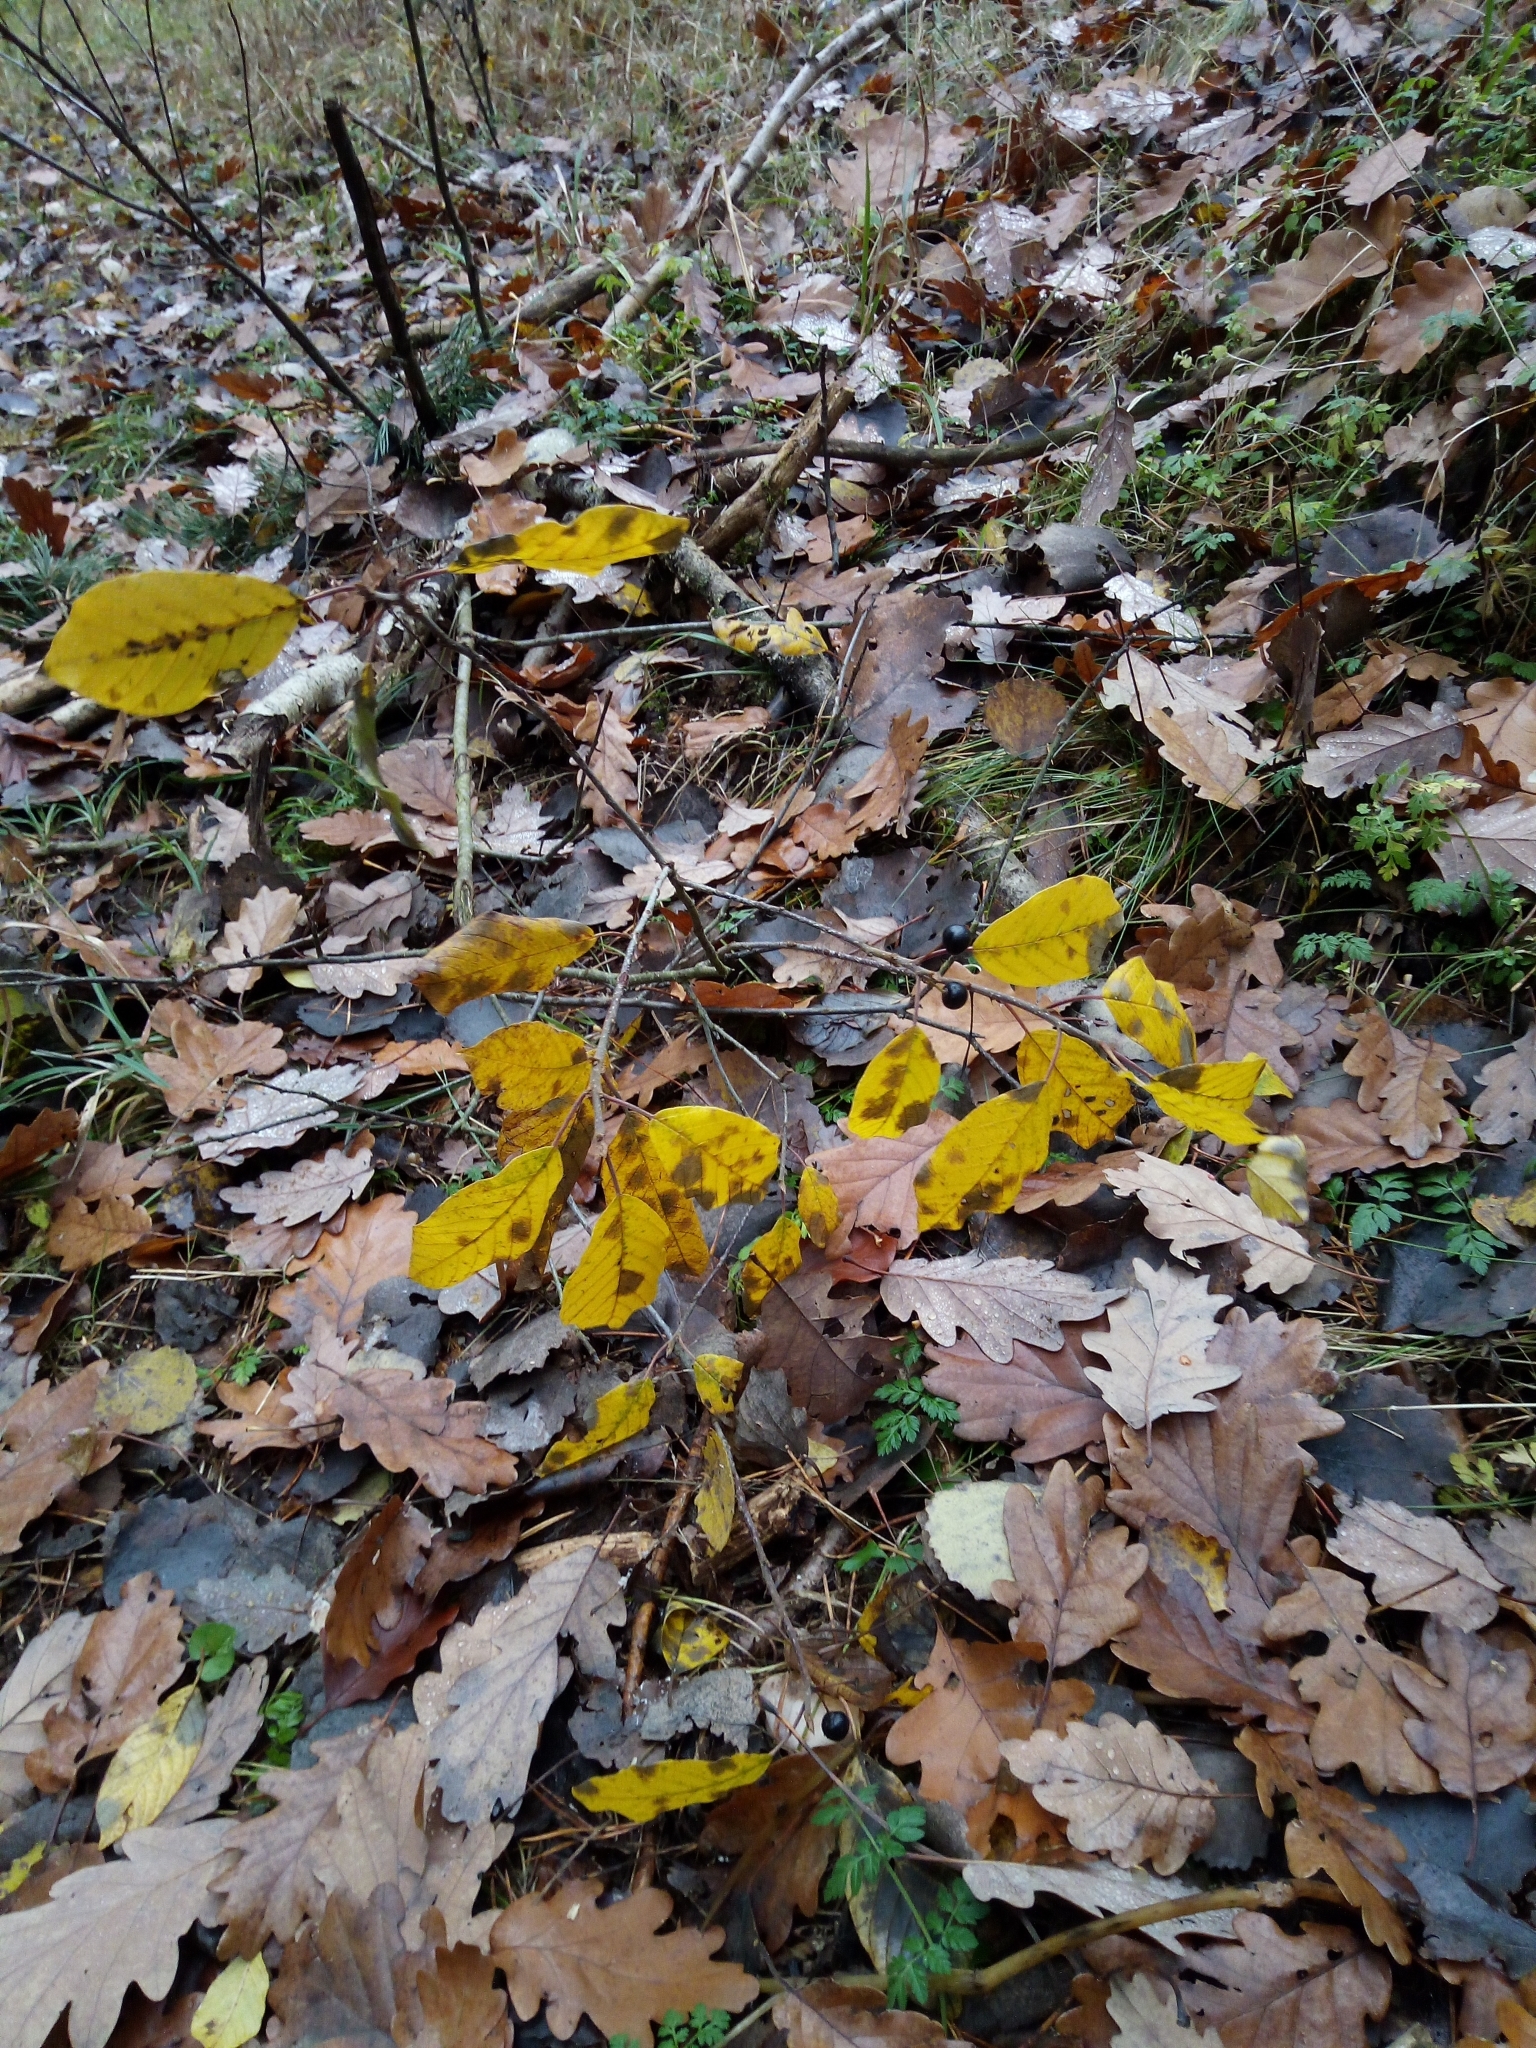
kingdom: Plantae
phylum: Tracheophyta
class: Magnoliopsida
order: Rosales
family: Rhamnaceae
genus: Frangula
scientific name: Frangula alnus
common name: Alder buckthorn
